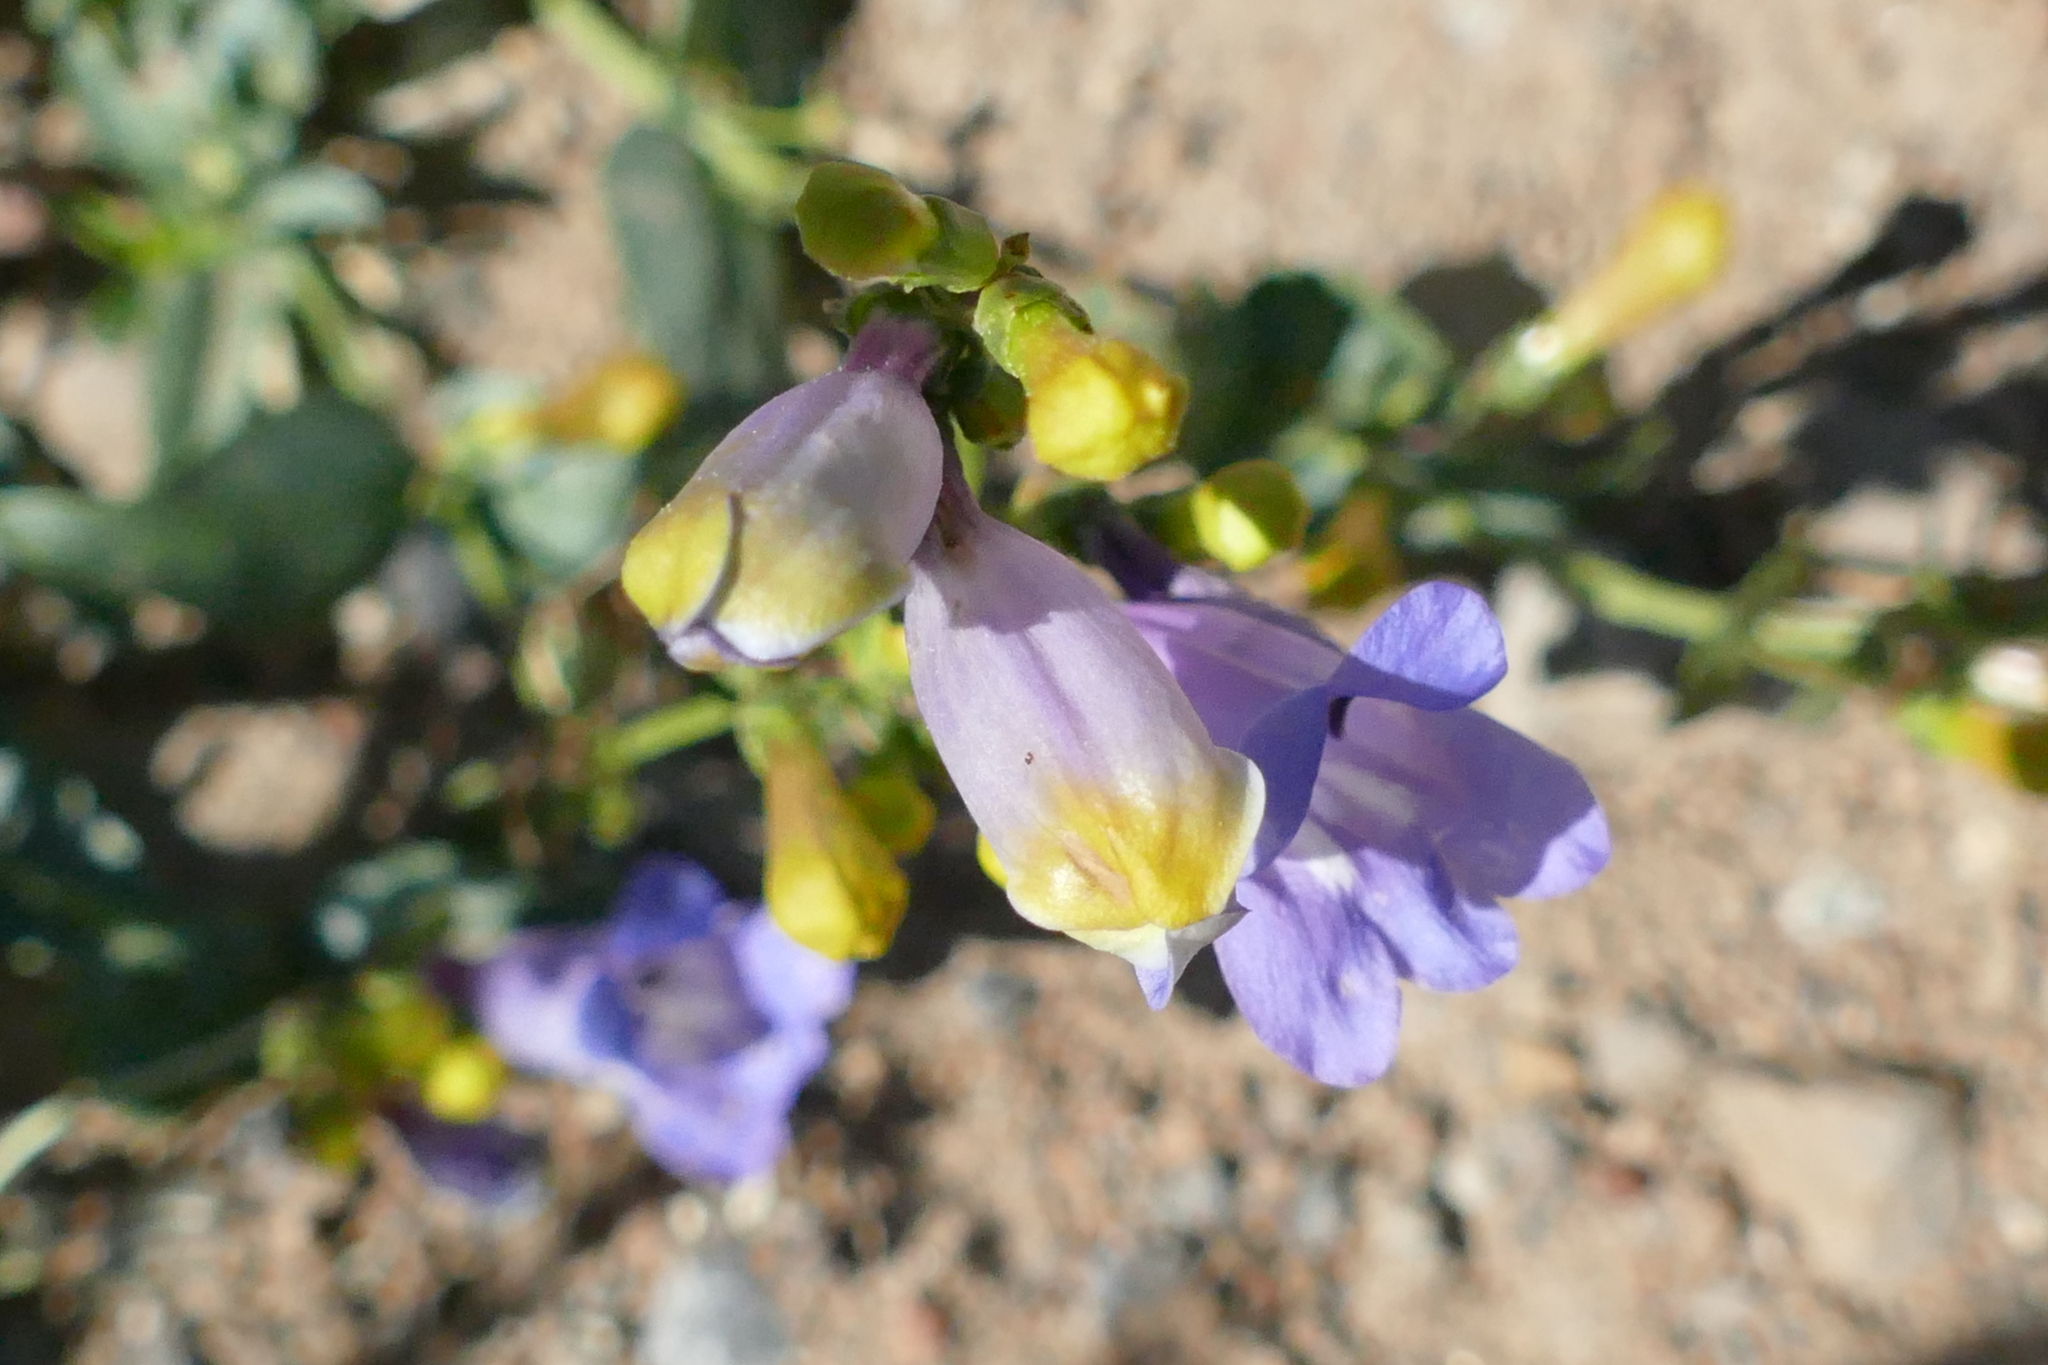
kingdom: Plantae
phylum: Tracheophyta
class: Magnoliopsida
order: Lamiales
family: Plantaginaceae
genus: Penstemon
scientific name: Penstemon heterophyllus
